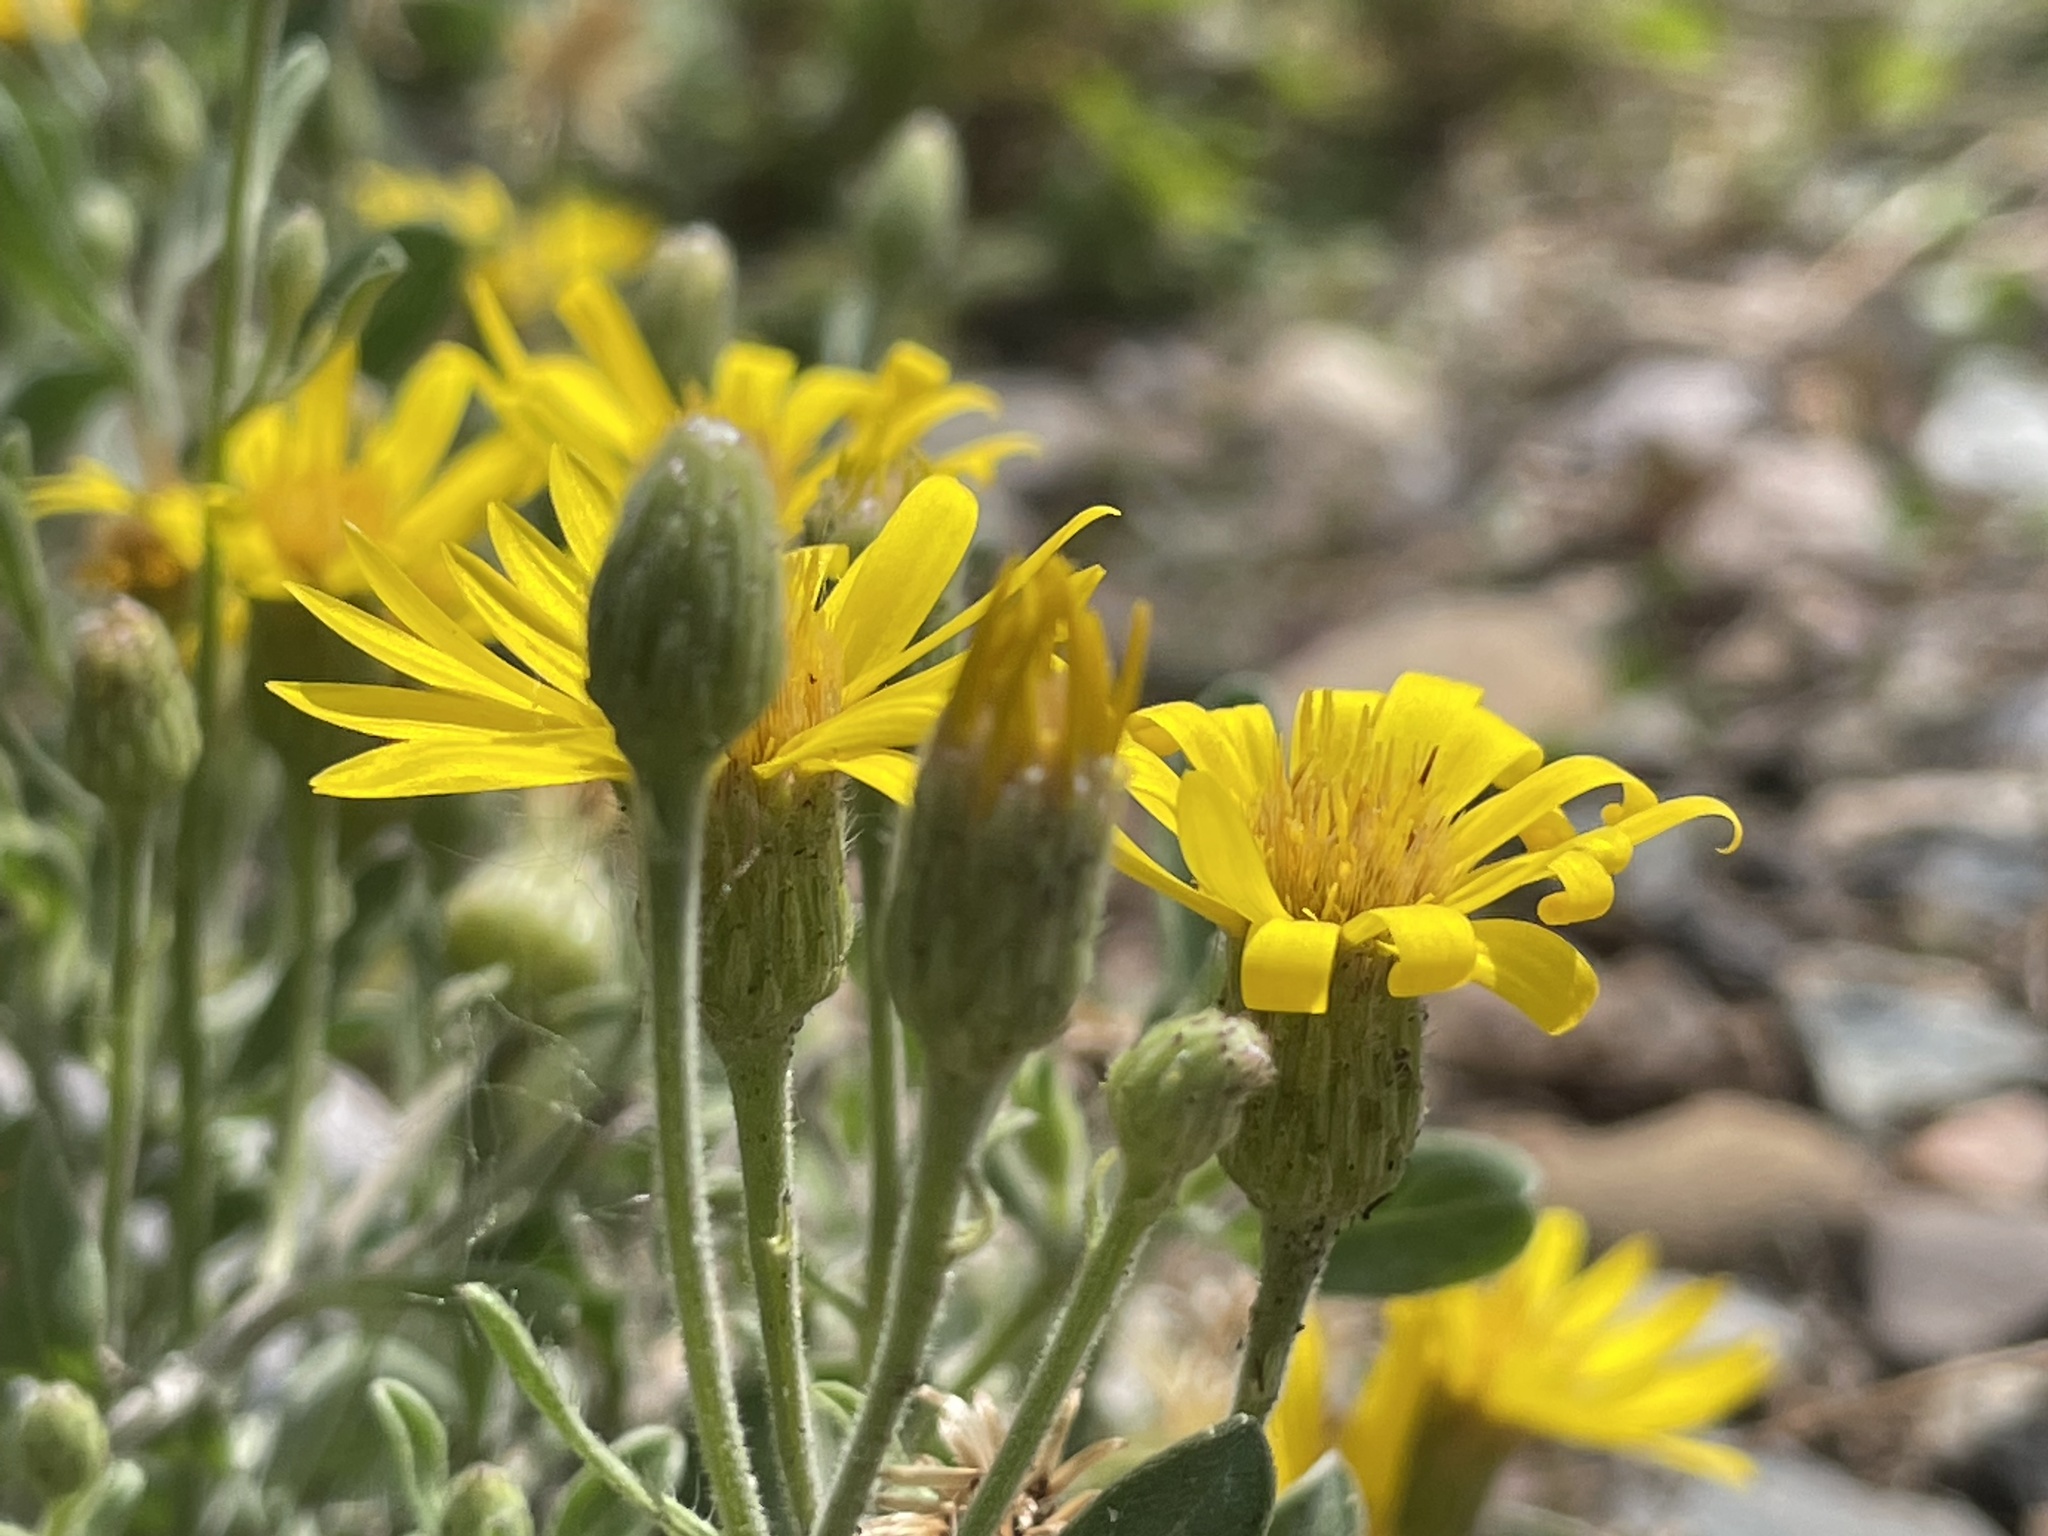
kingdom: Plantae
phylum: Tracheophyta
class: Magnoliopsida
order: Asterales
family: Asteraceae
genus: Heterotheca
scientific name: Heterotheca hirsutissima
